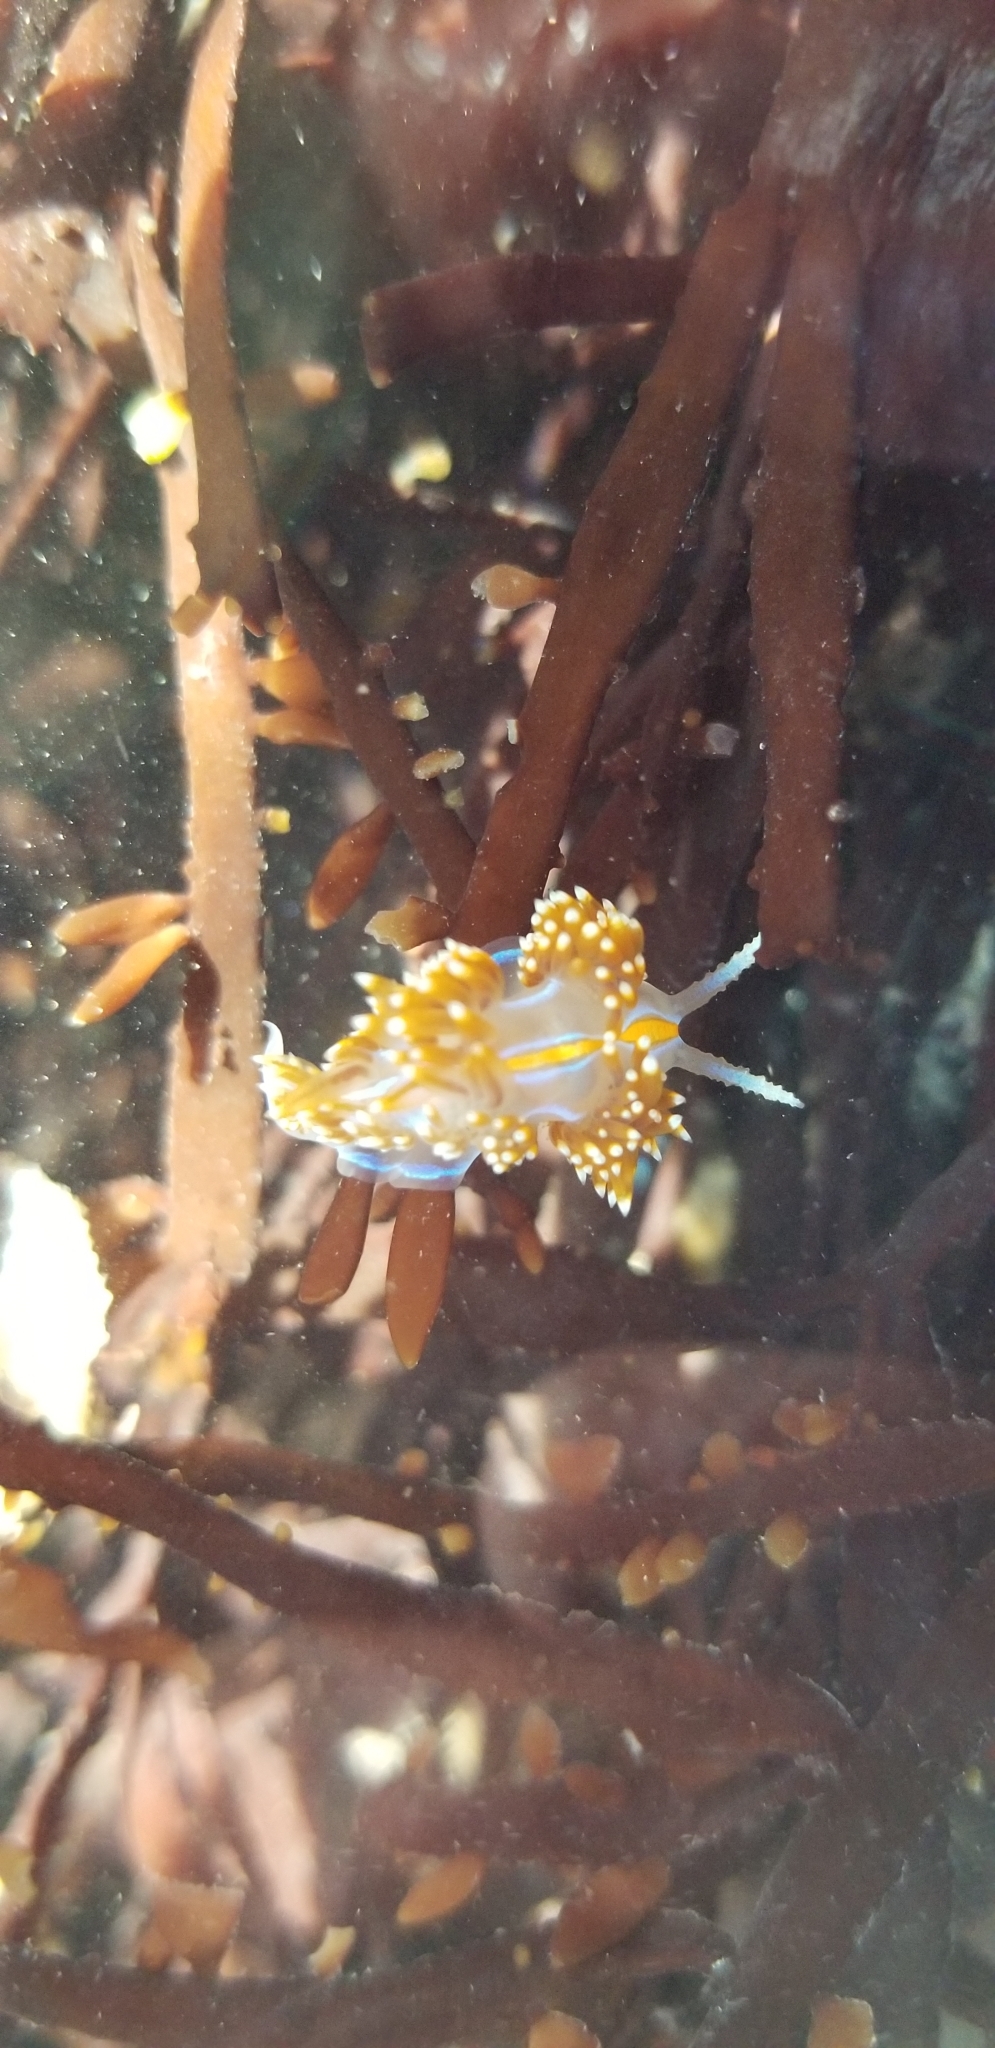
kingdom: Animalia
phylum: Mollusca
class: Gastropoda
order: Nudibranchia
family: Myrrhinidae
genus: Hermissenda
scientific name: Hermissenda opalescens
